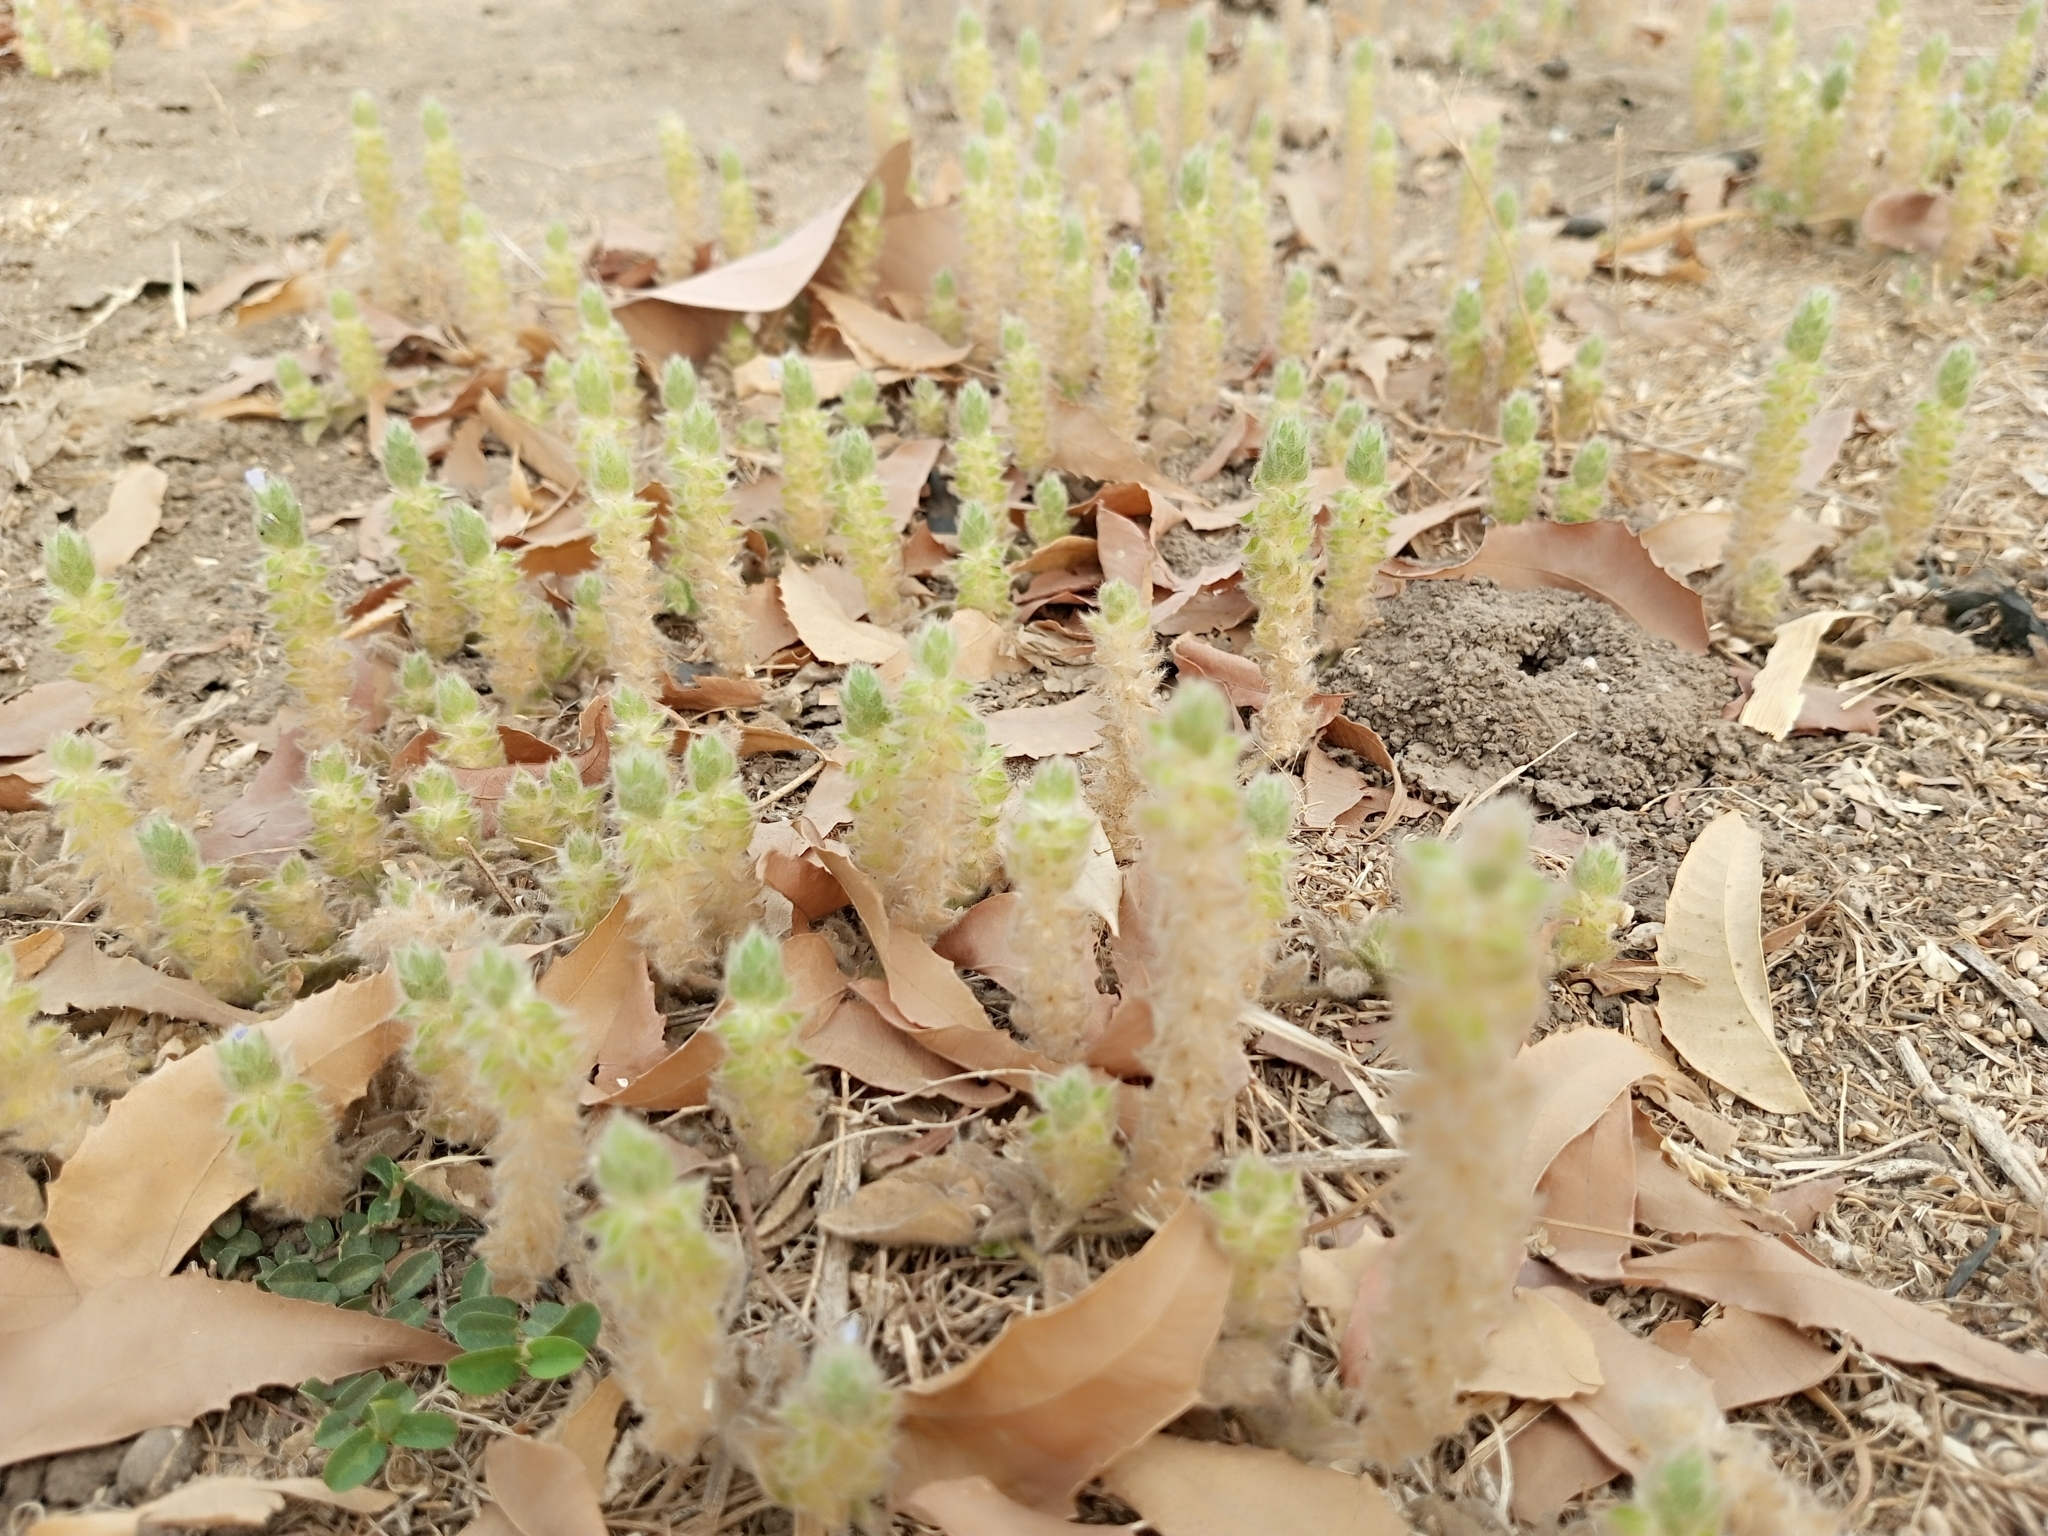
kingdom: Plantae
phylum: Tracheophyta
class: Magnoliopsida
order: Lamiales
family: Acanthaceae
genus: Nelsonia
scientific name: Nelsonia canescens
